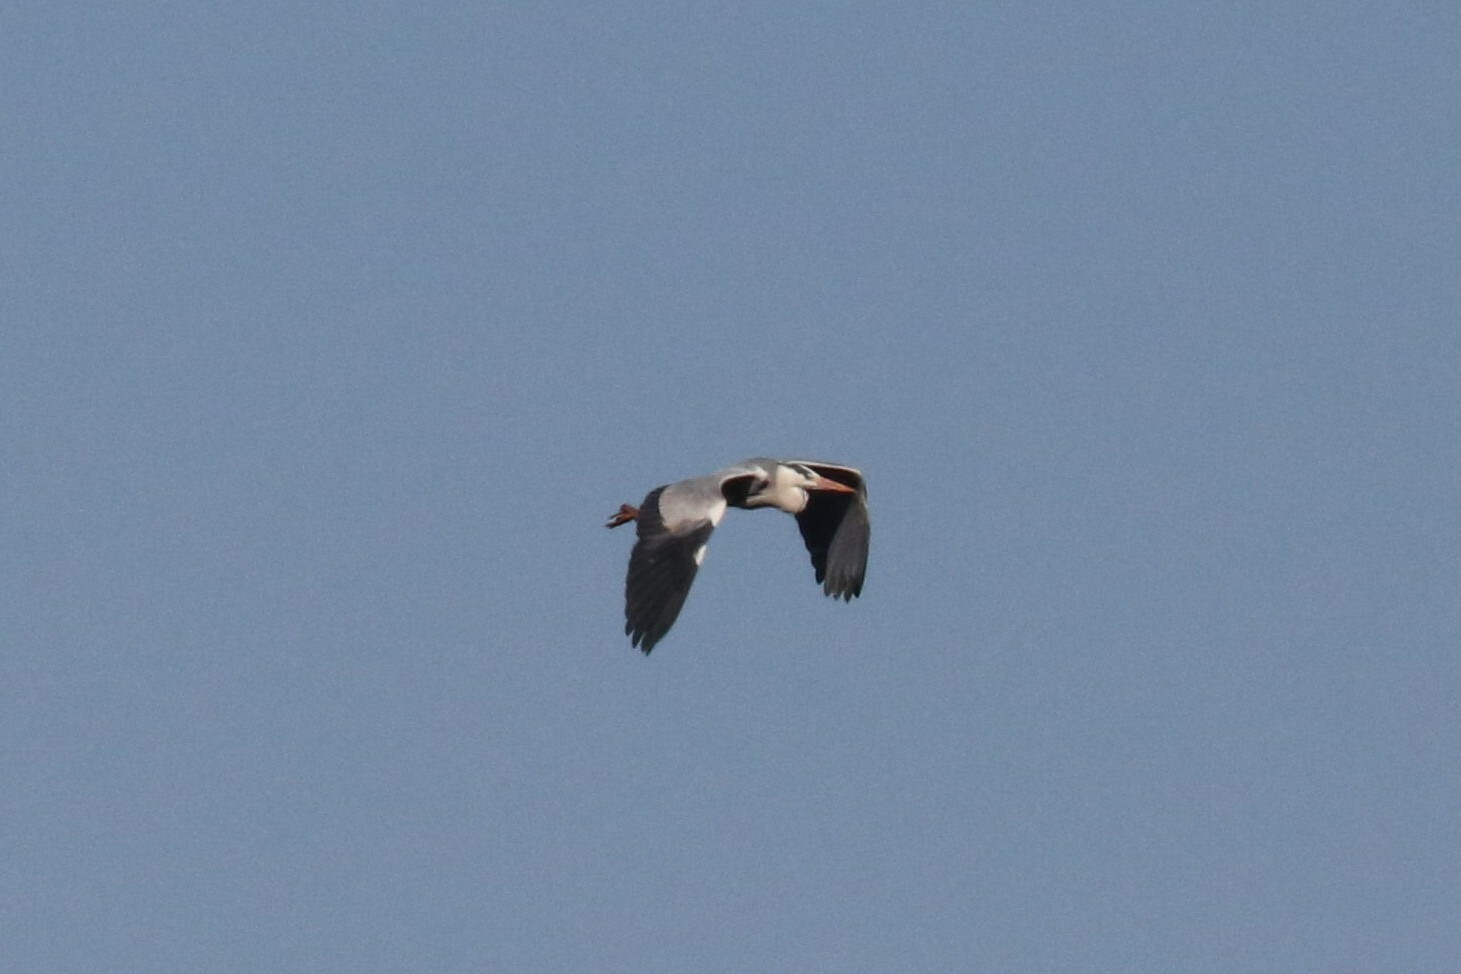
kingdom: Animalia
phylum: Chordata
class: Aves
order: Pelecaniformes
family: Ardeidae
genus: Ardea
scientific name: Ardea cinerea
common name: Grey heron
